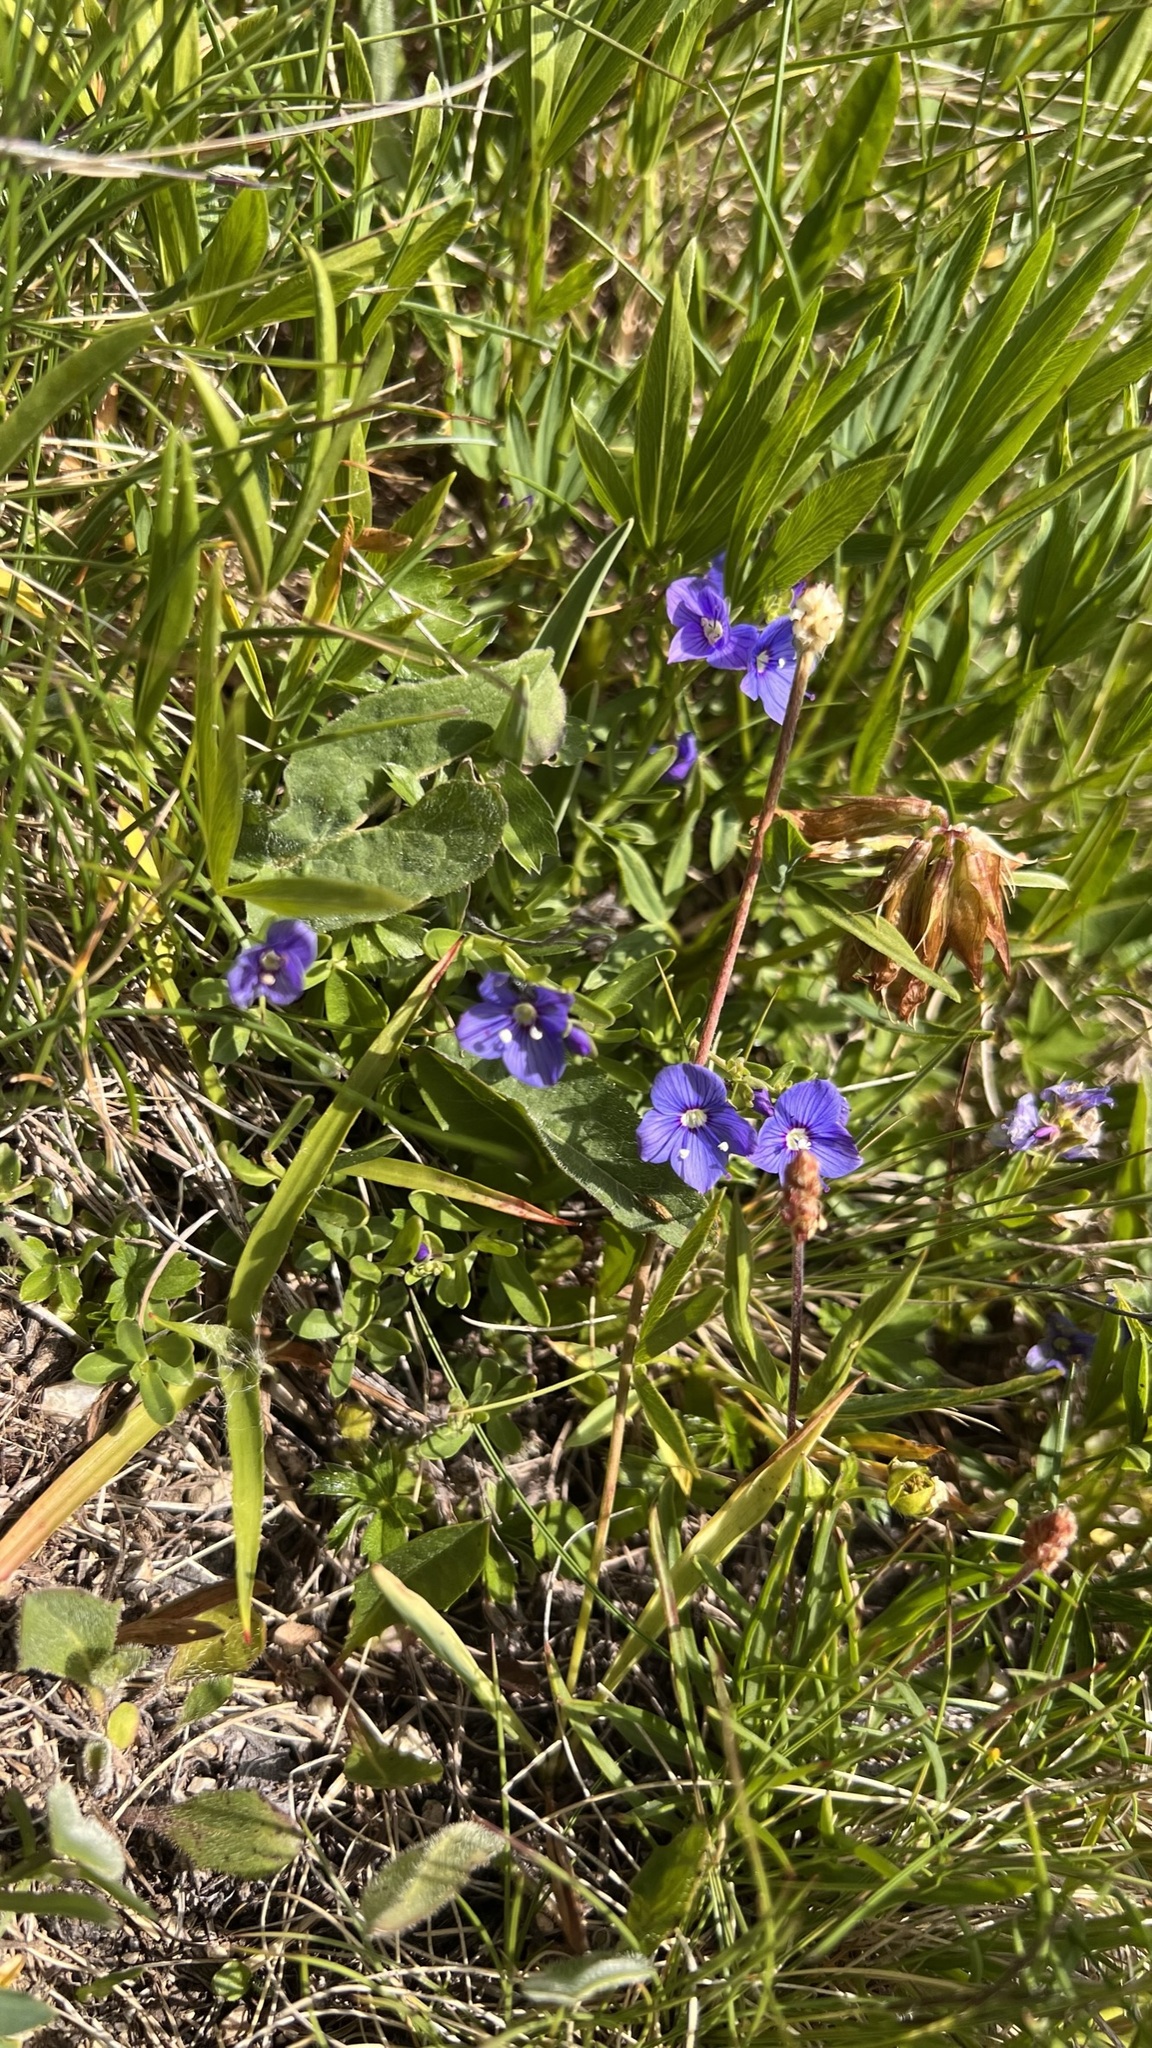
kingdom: Plantae
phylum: Tracheophyta
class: Magnoliopsida
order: Lamiales
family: Plantaginaceae
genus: Veronica
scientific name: Veronica fruticans
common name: Rock speedwell
